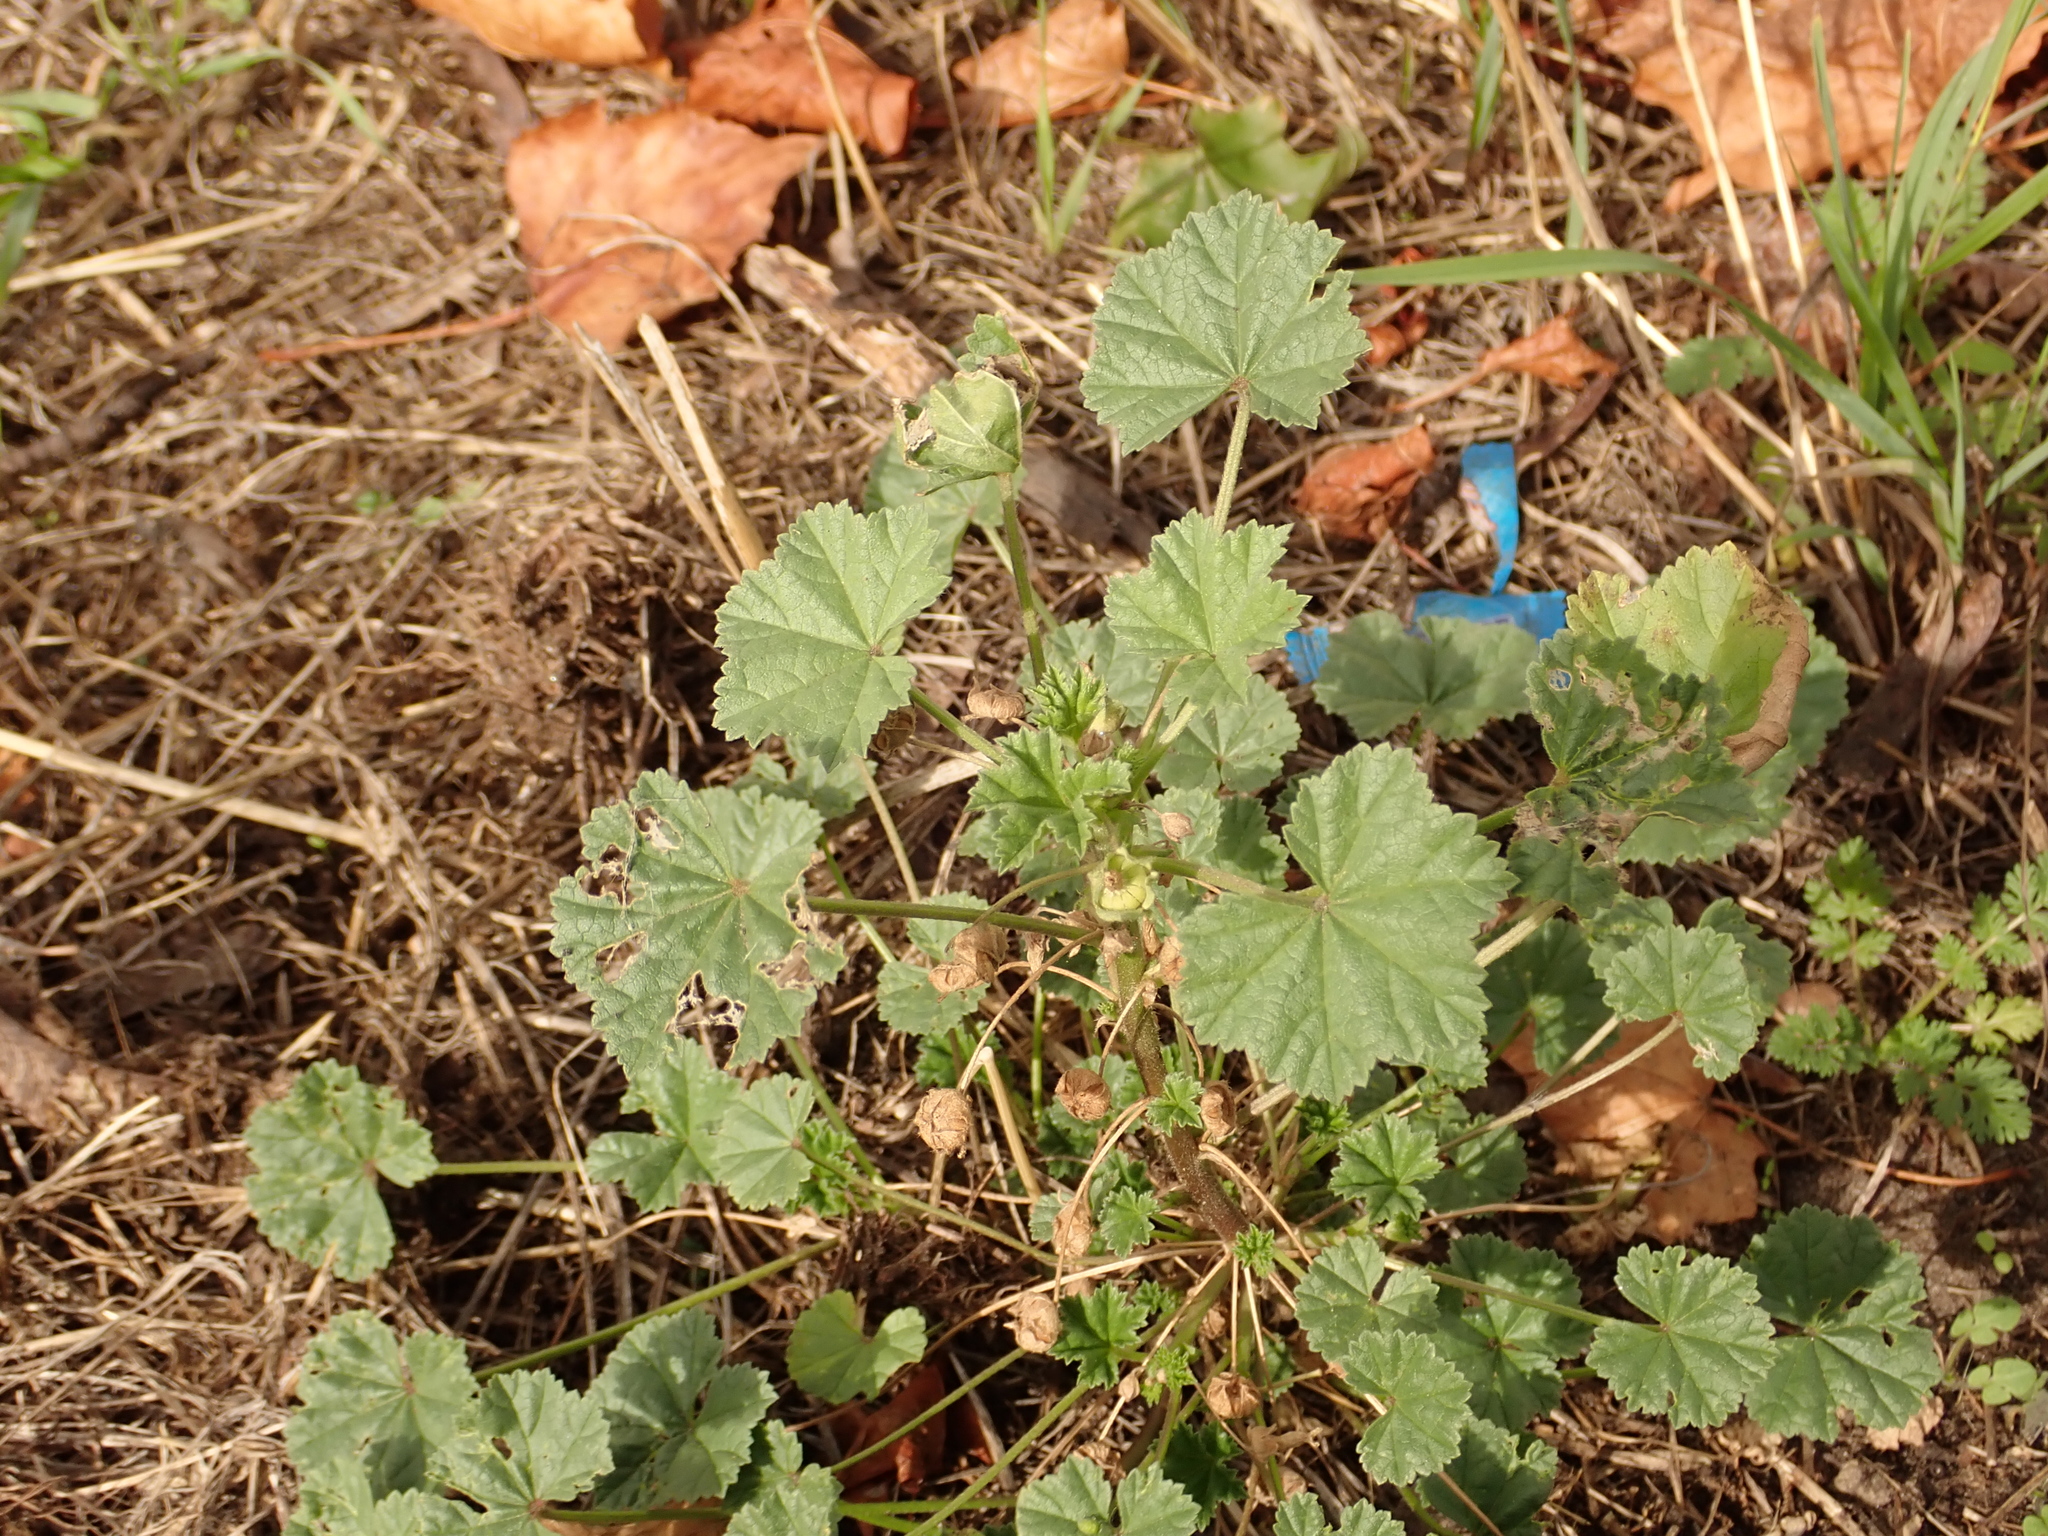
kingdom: Plantae
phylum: Tracheophyta
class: Magnoliopsida
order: Malvales
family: Malvaceae
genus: Malva
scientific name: Malva neglecta
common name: Common mallow
